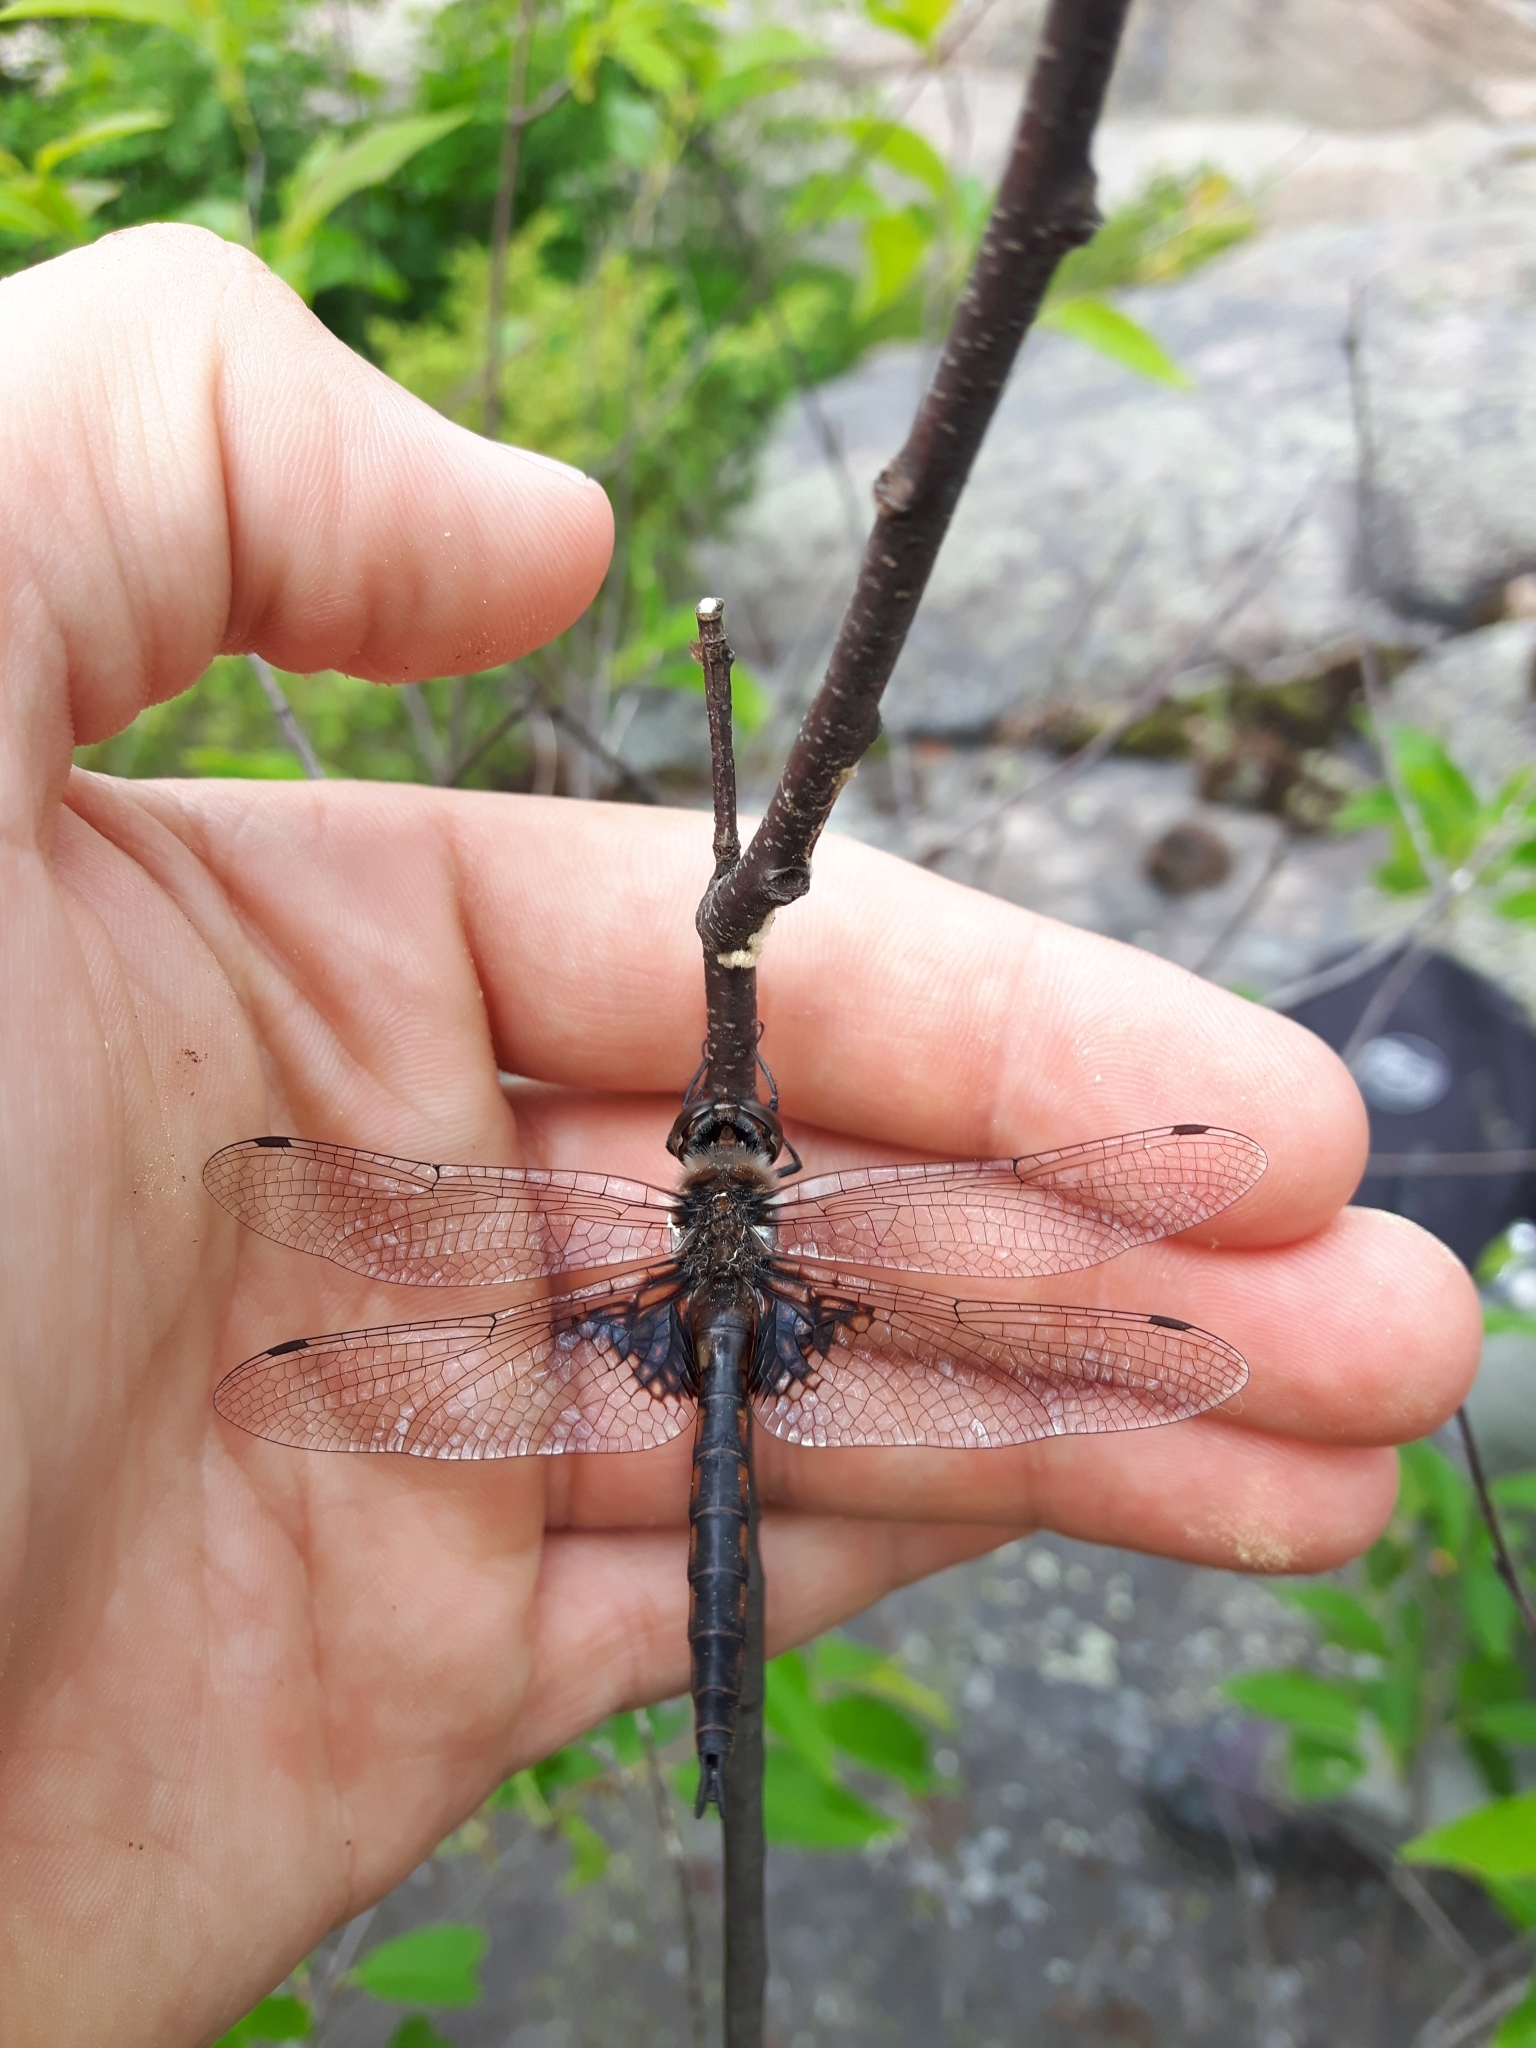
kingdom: Animalia
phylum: Arthropoda
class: Insecta
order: Odonata
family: Corduliidae
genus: Epitheca
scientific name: Epitheca cynosura
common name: Common baskettail
